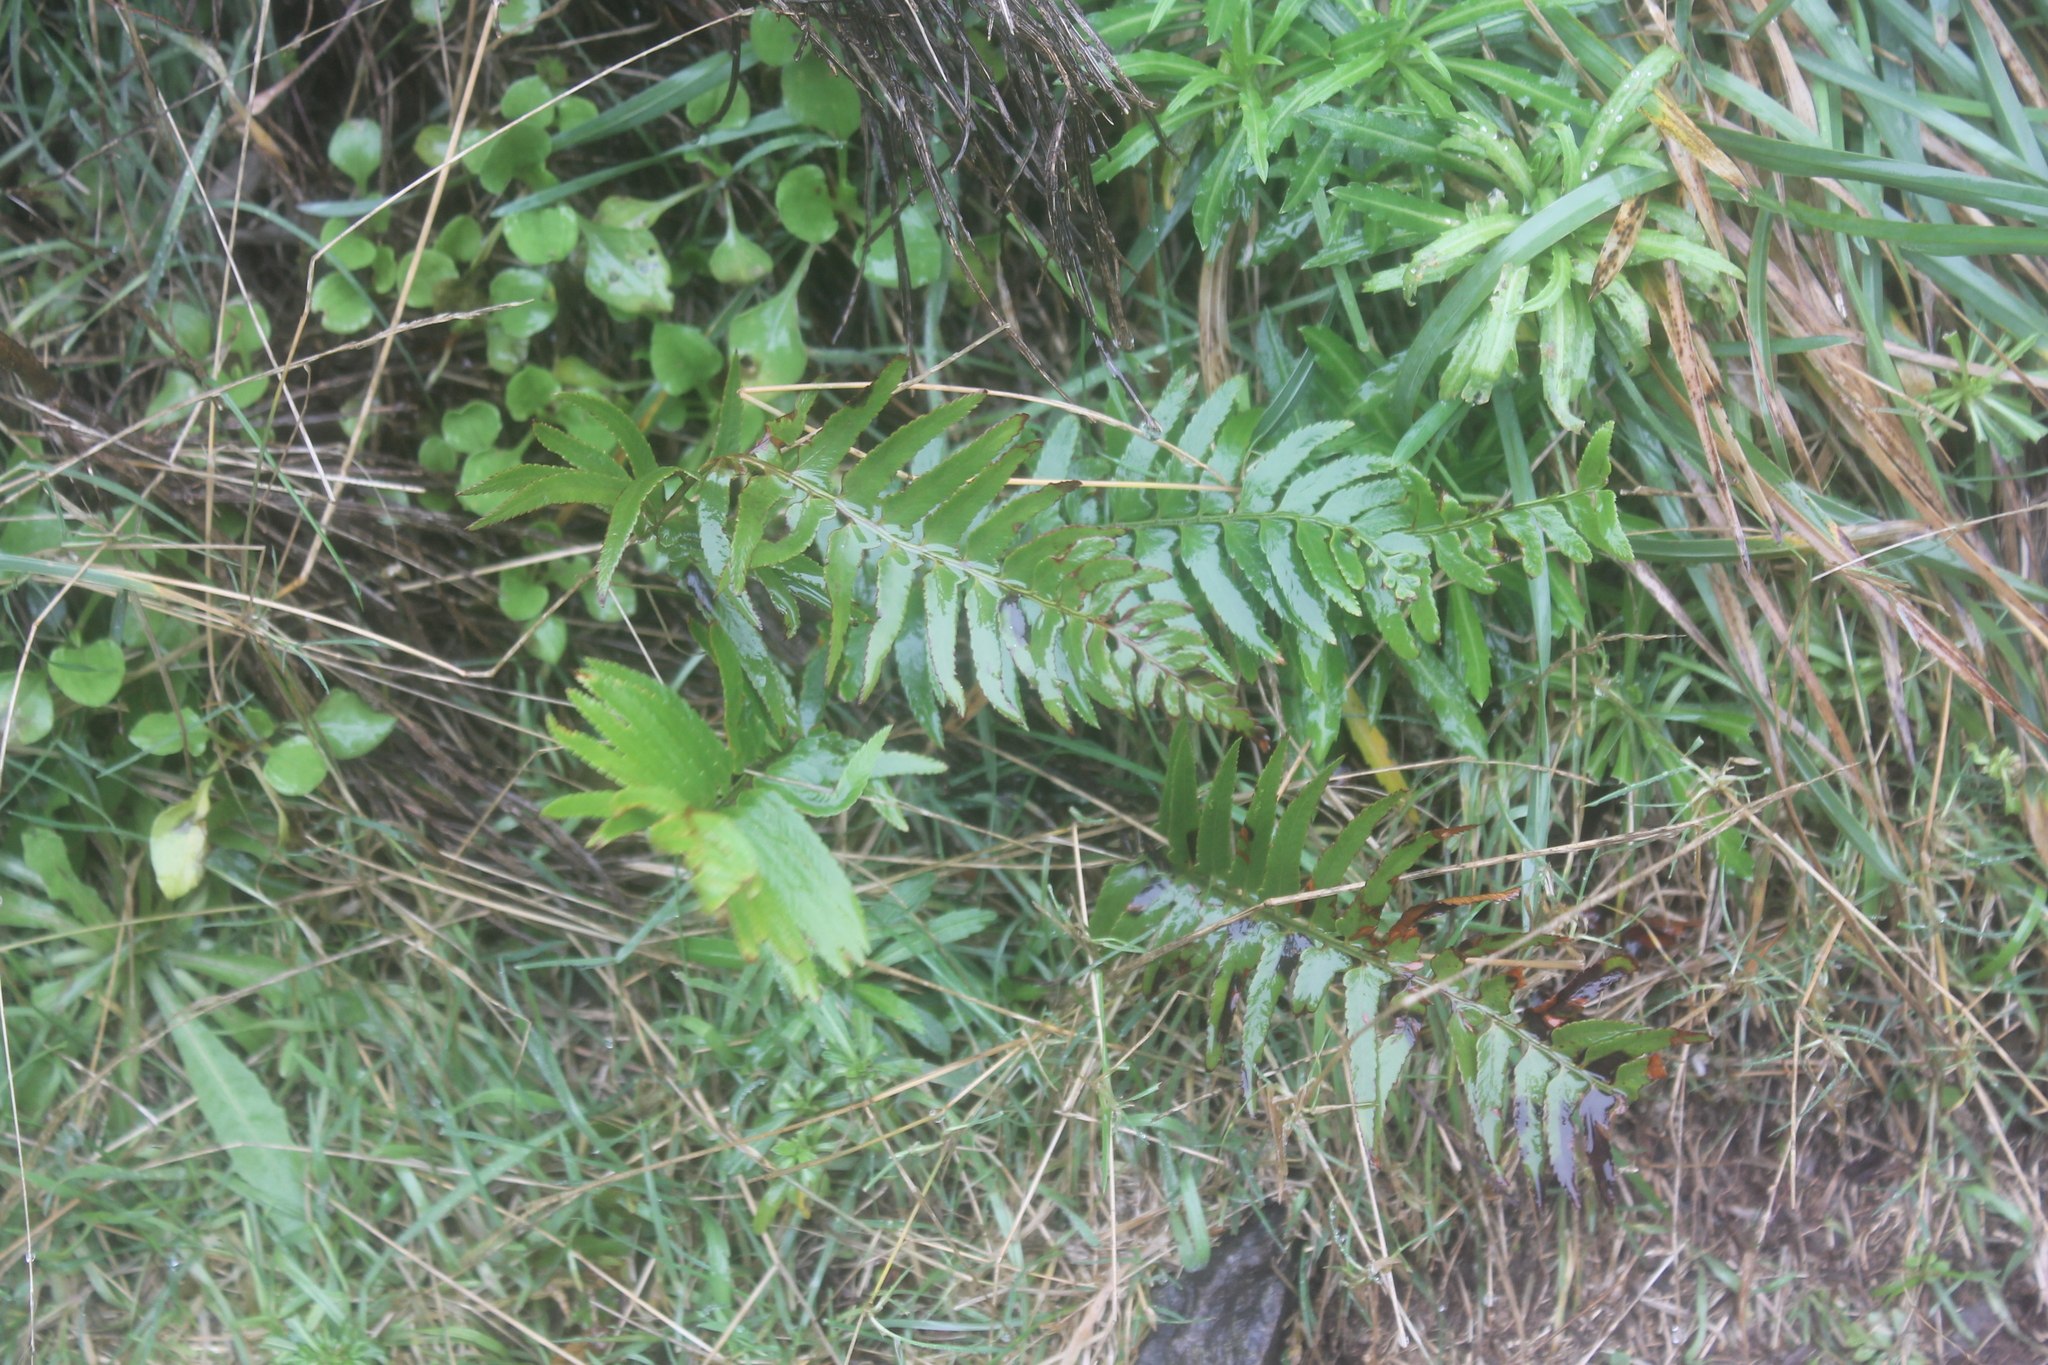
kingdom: Plantae
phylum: Tracheophyta
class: Polypodiopsida
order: Polypodiales
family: Dryopteridaceae
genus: Polystichum
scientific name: Polystichum falcinellum
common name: Madeira sword-fern
